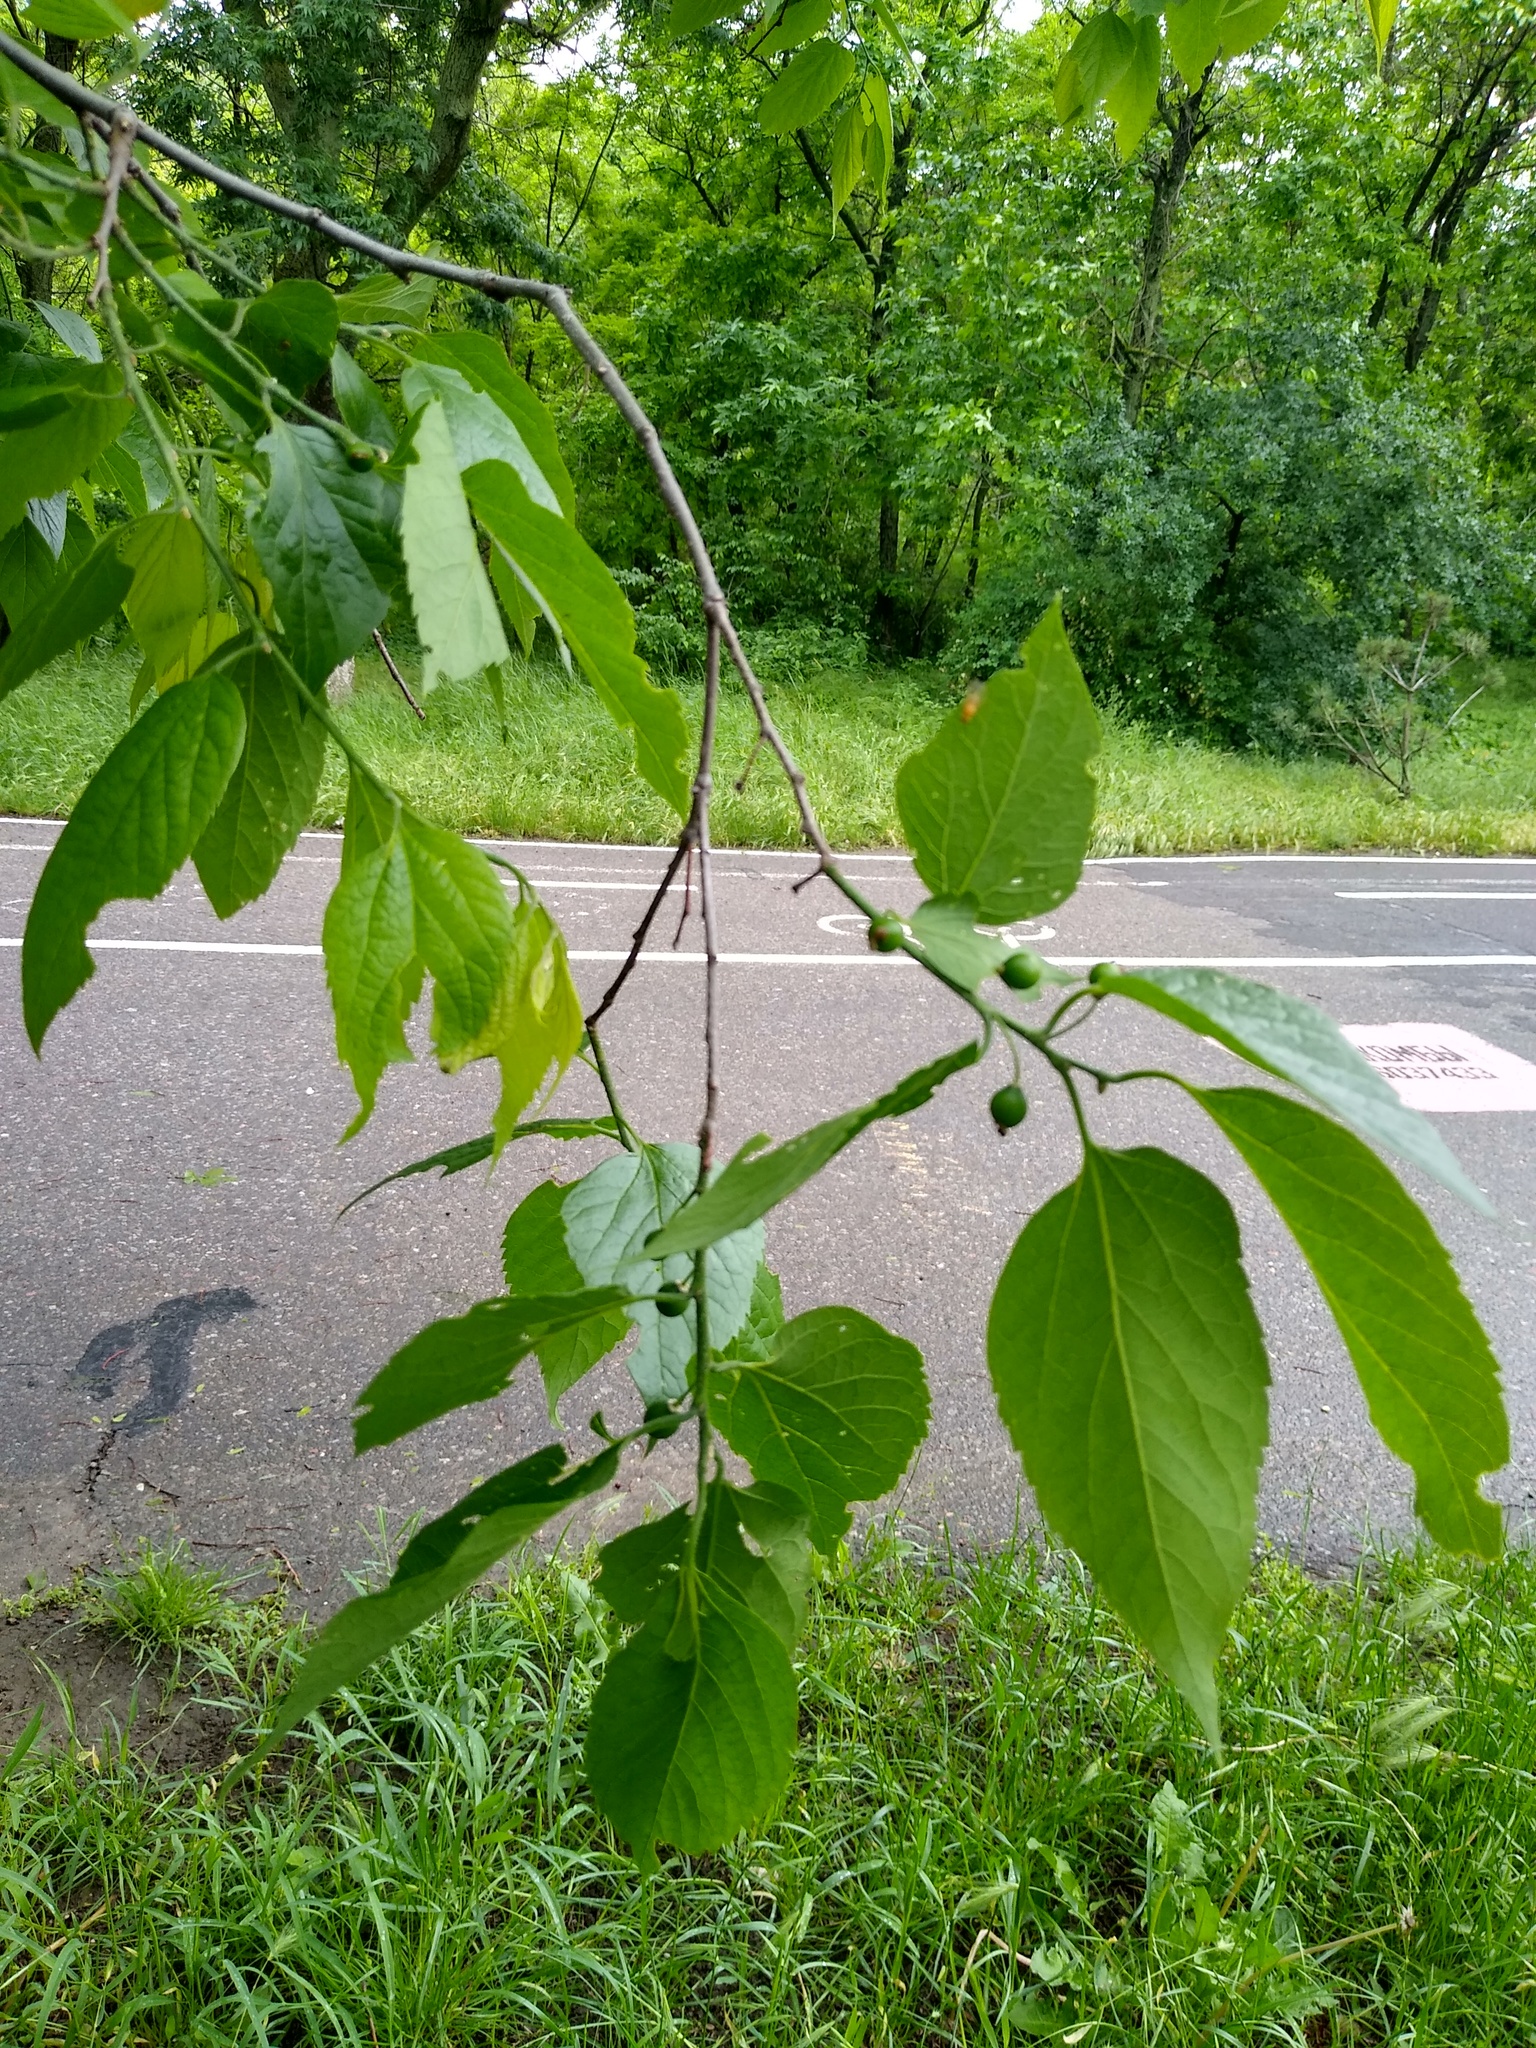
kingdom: Plantae
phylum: Tracheophyta
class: Magnoliopsida
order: Rosales
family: Cannabaceae
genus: Celtis
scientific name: Celtis occidentalis
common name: Common hackberry
